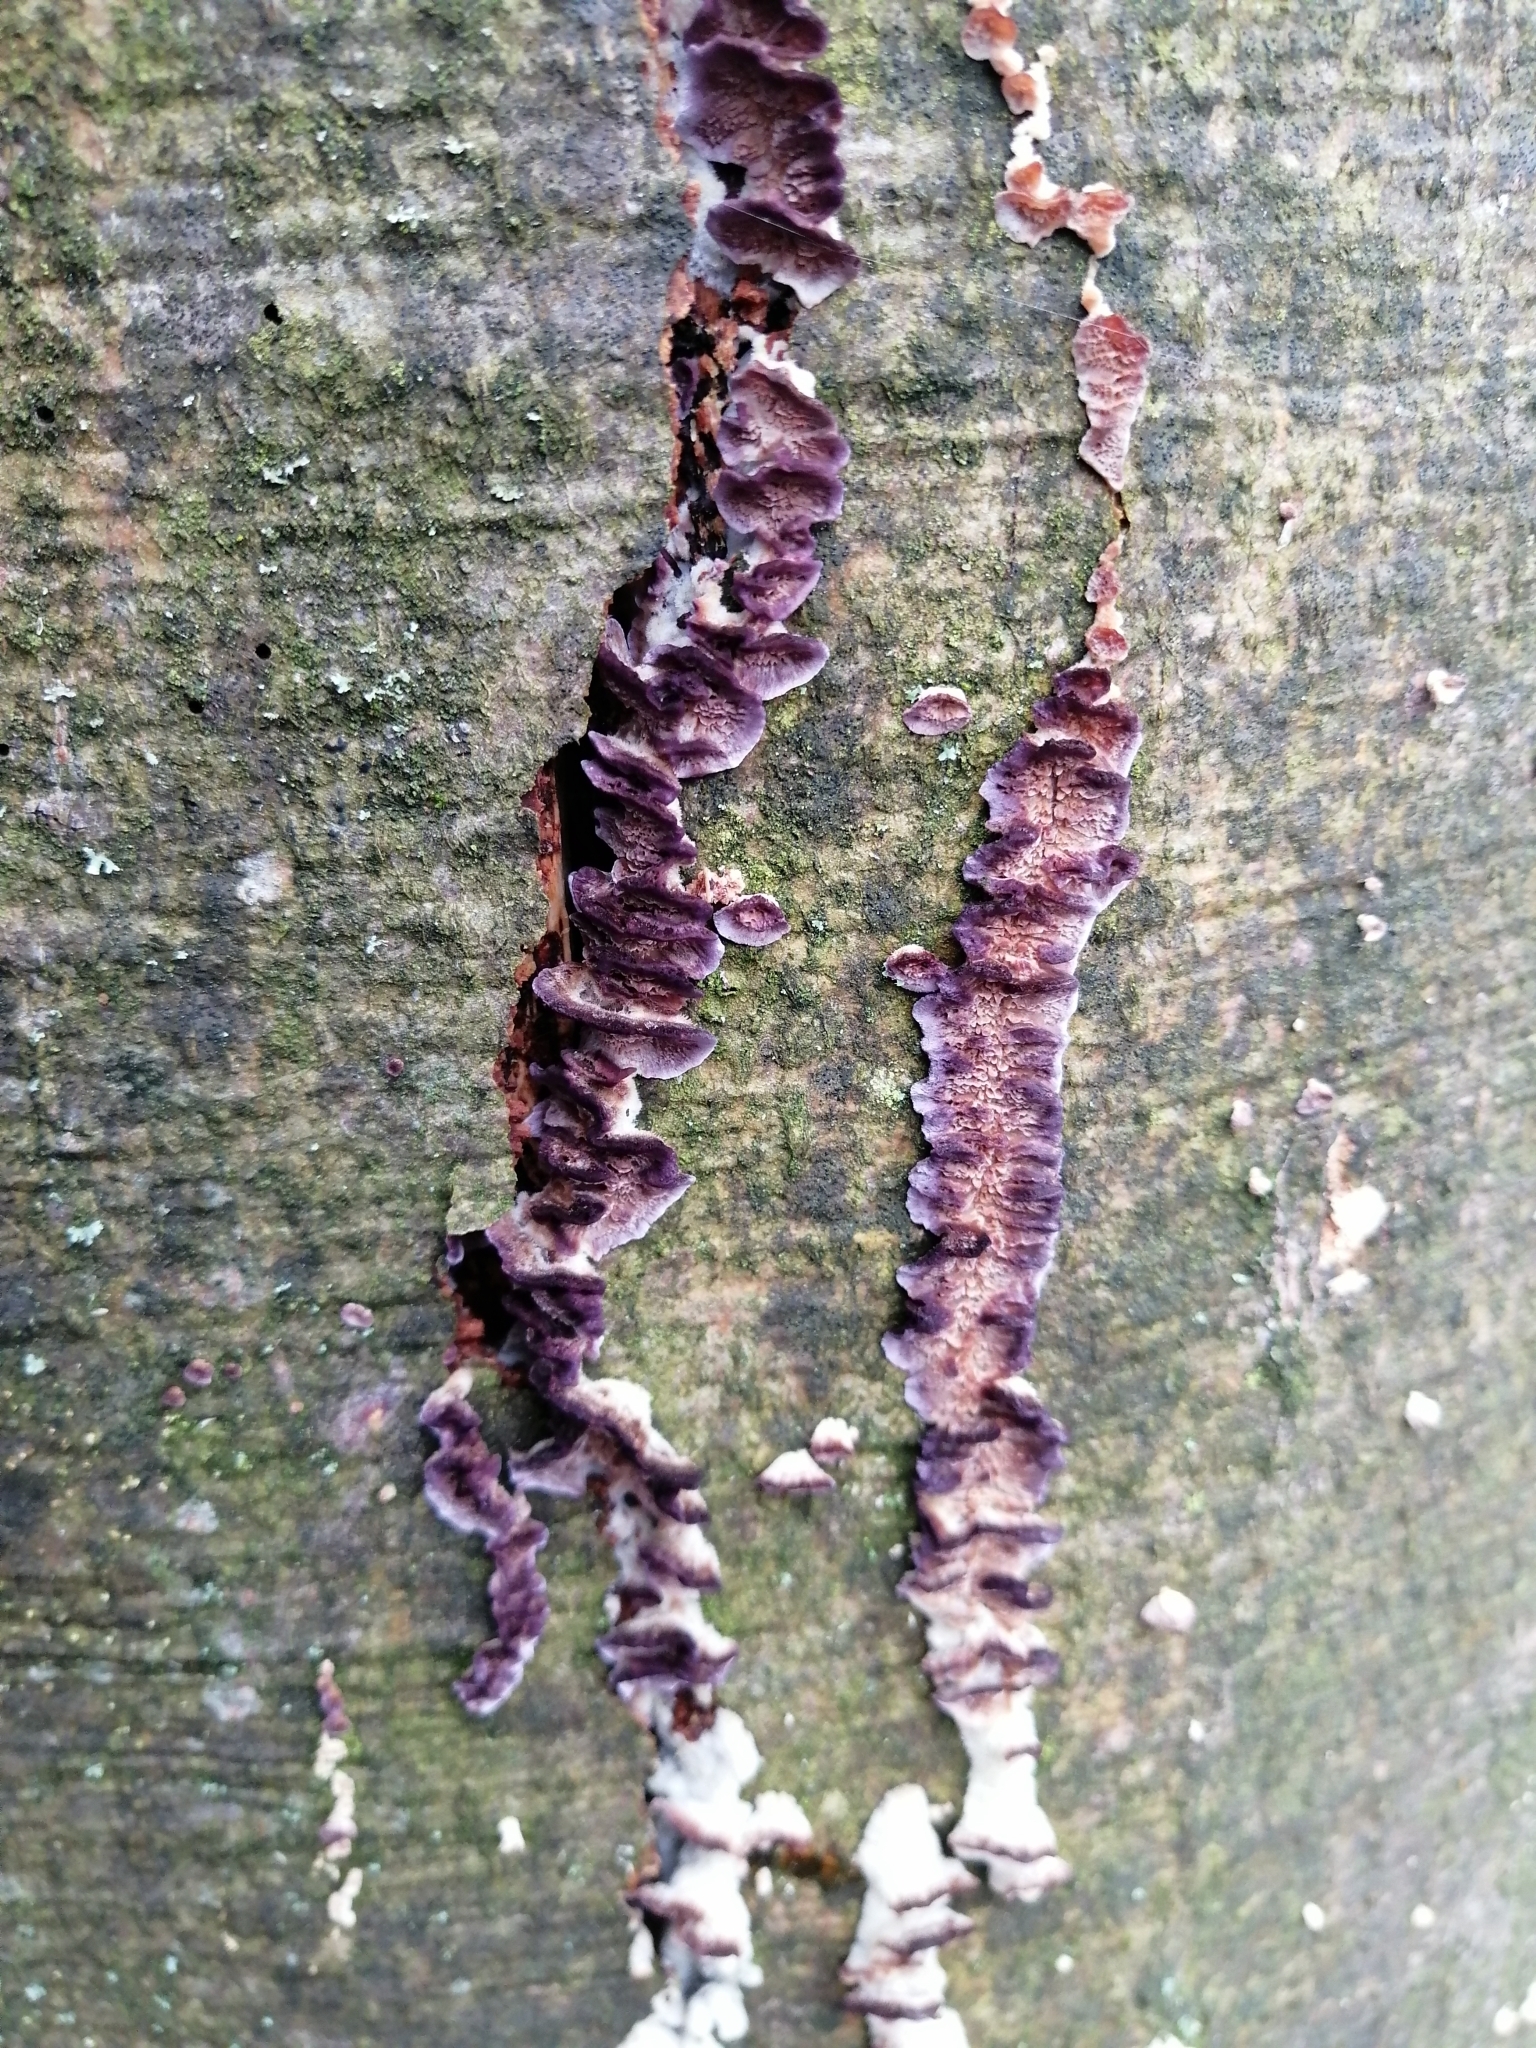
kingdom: Fungi
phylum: Basidiomycota
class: Agaricomycetes
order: Agaricales
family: Cyphellaceae
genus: Chondrostereum
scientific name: Chondrostereum purpureum
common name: Silver leaf disease
